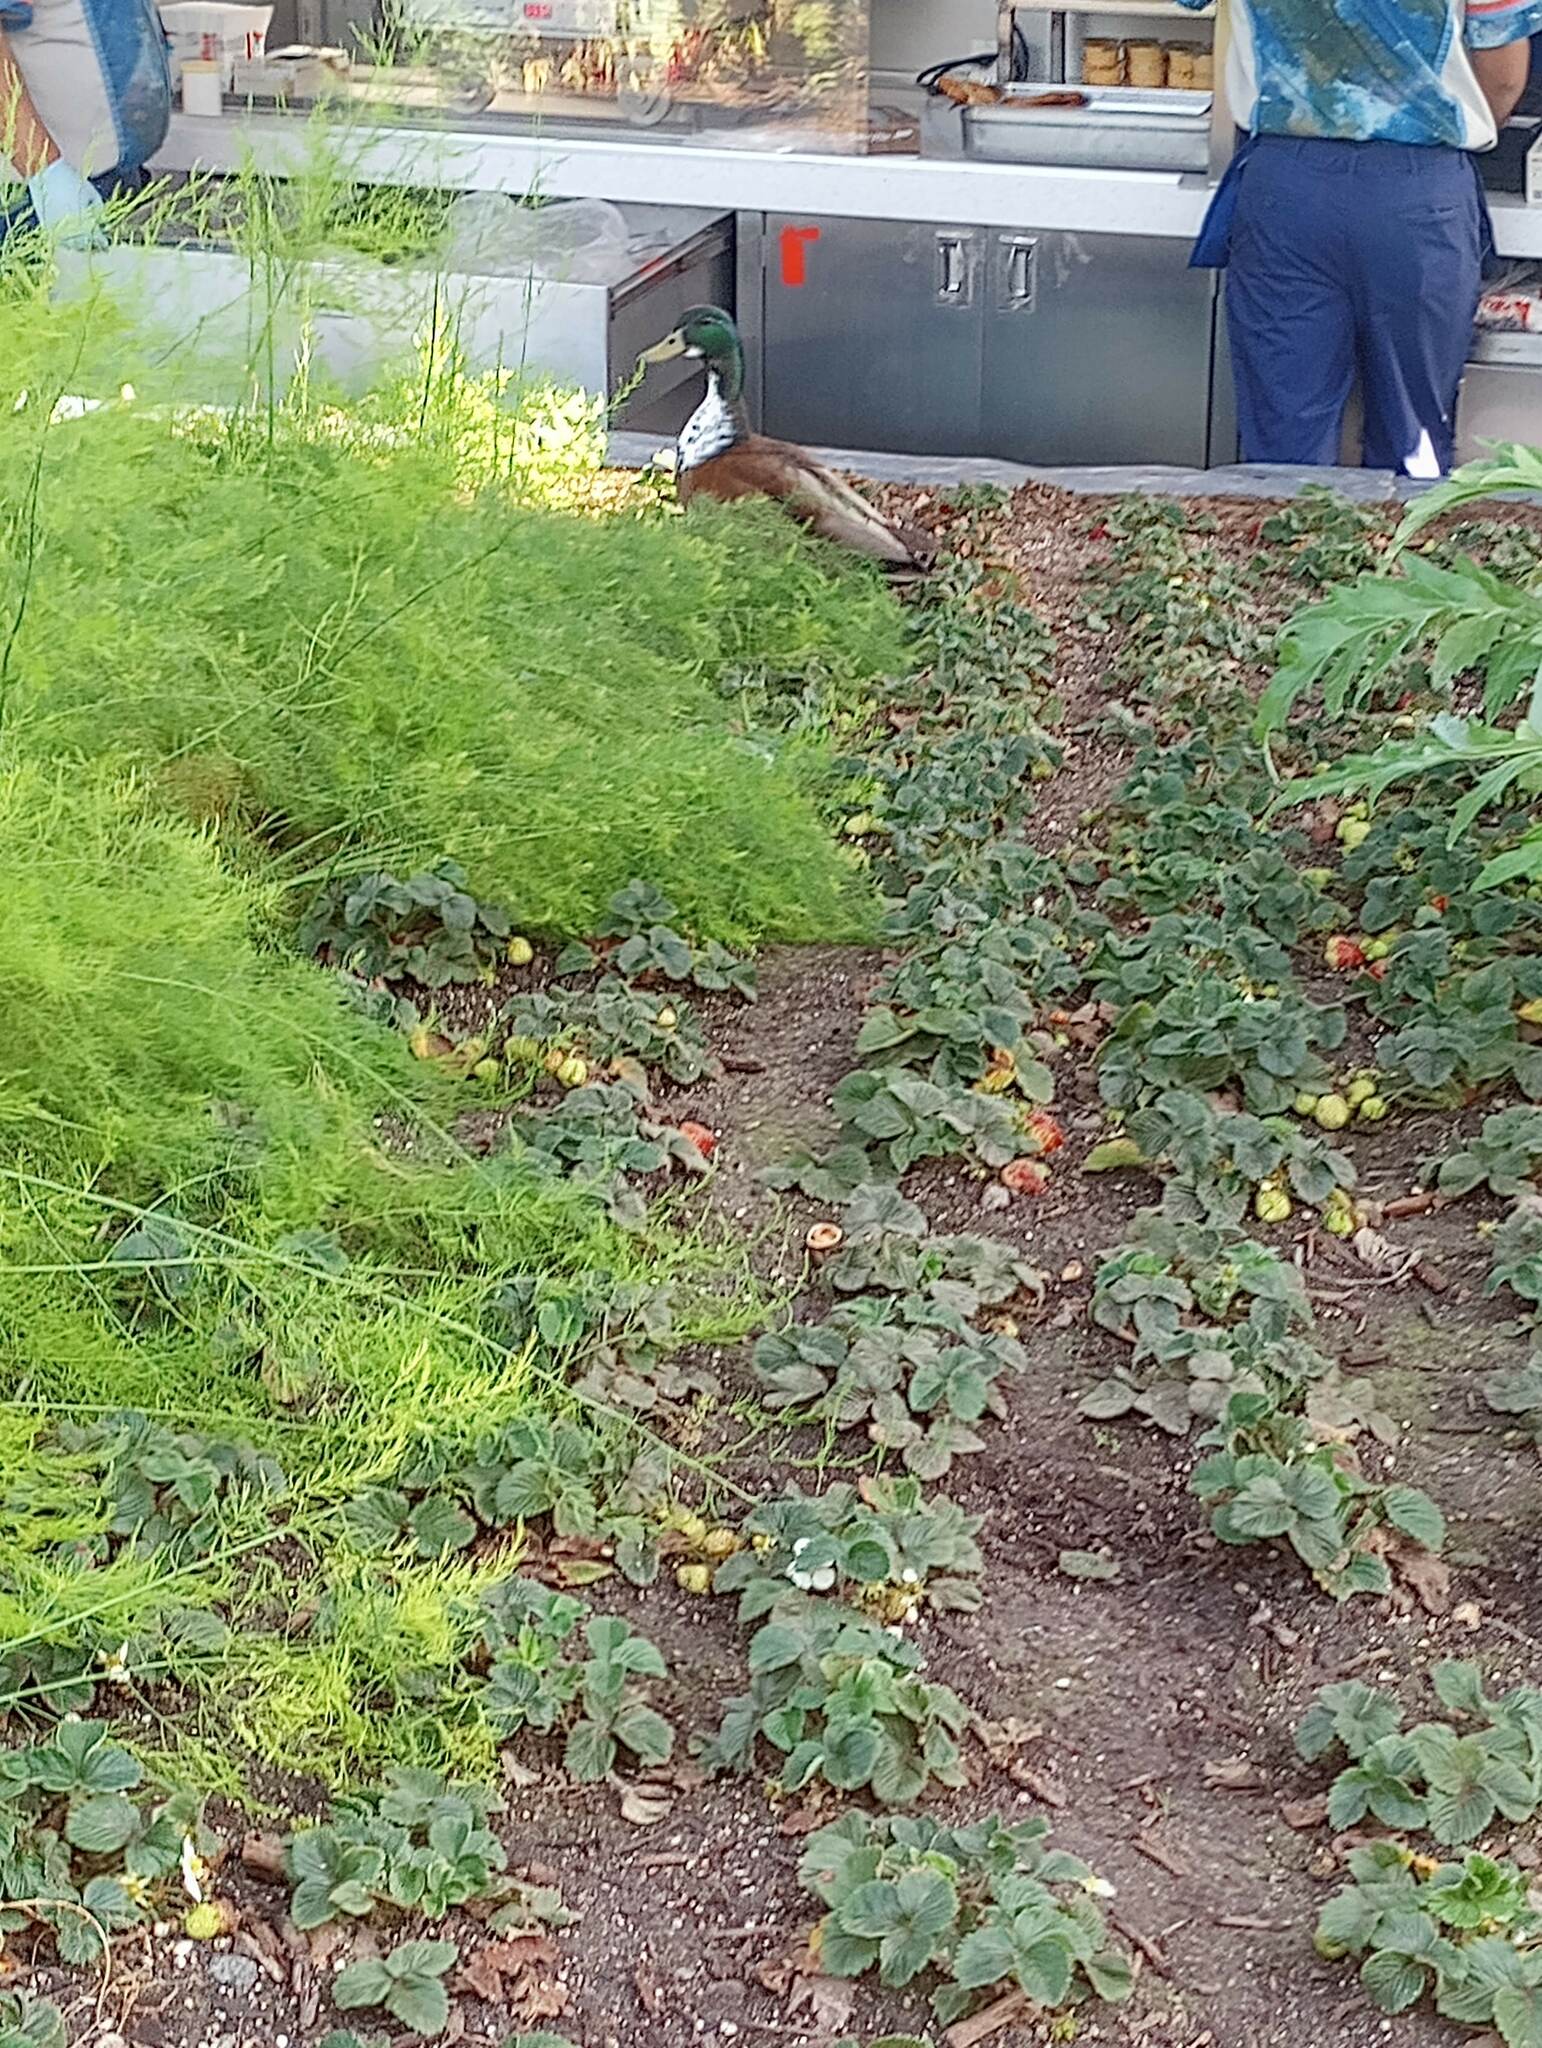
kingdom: Animalia
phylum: Chordata
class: Aves
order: Anseriformes
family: Anatidae
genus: Anas
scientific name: Anas platyrhynchos
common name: Mallard
